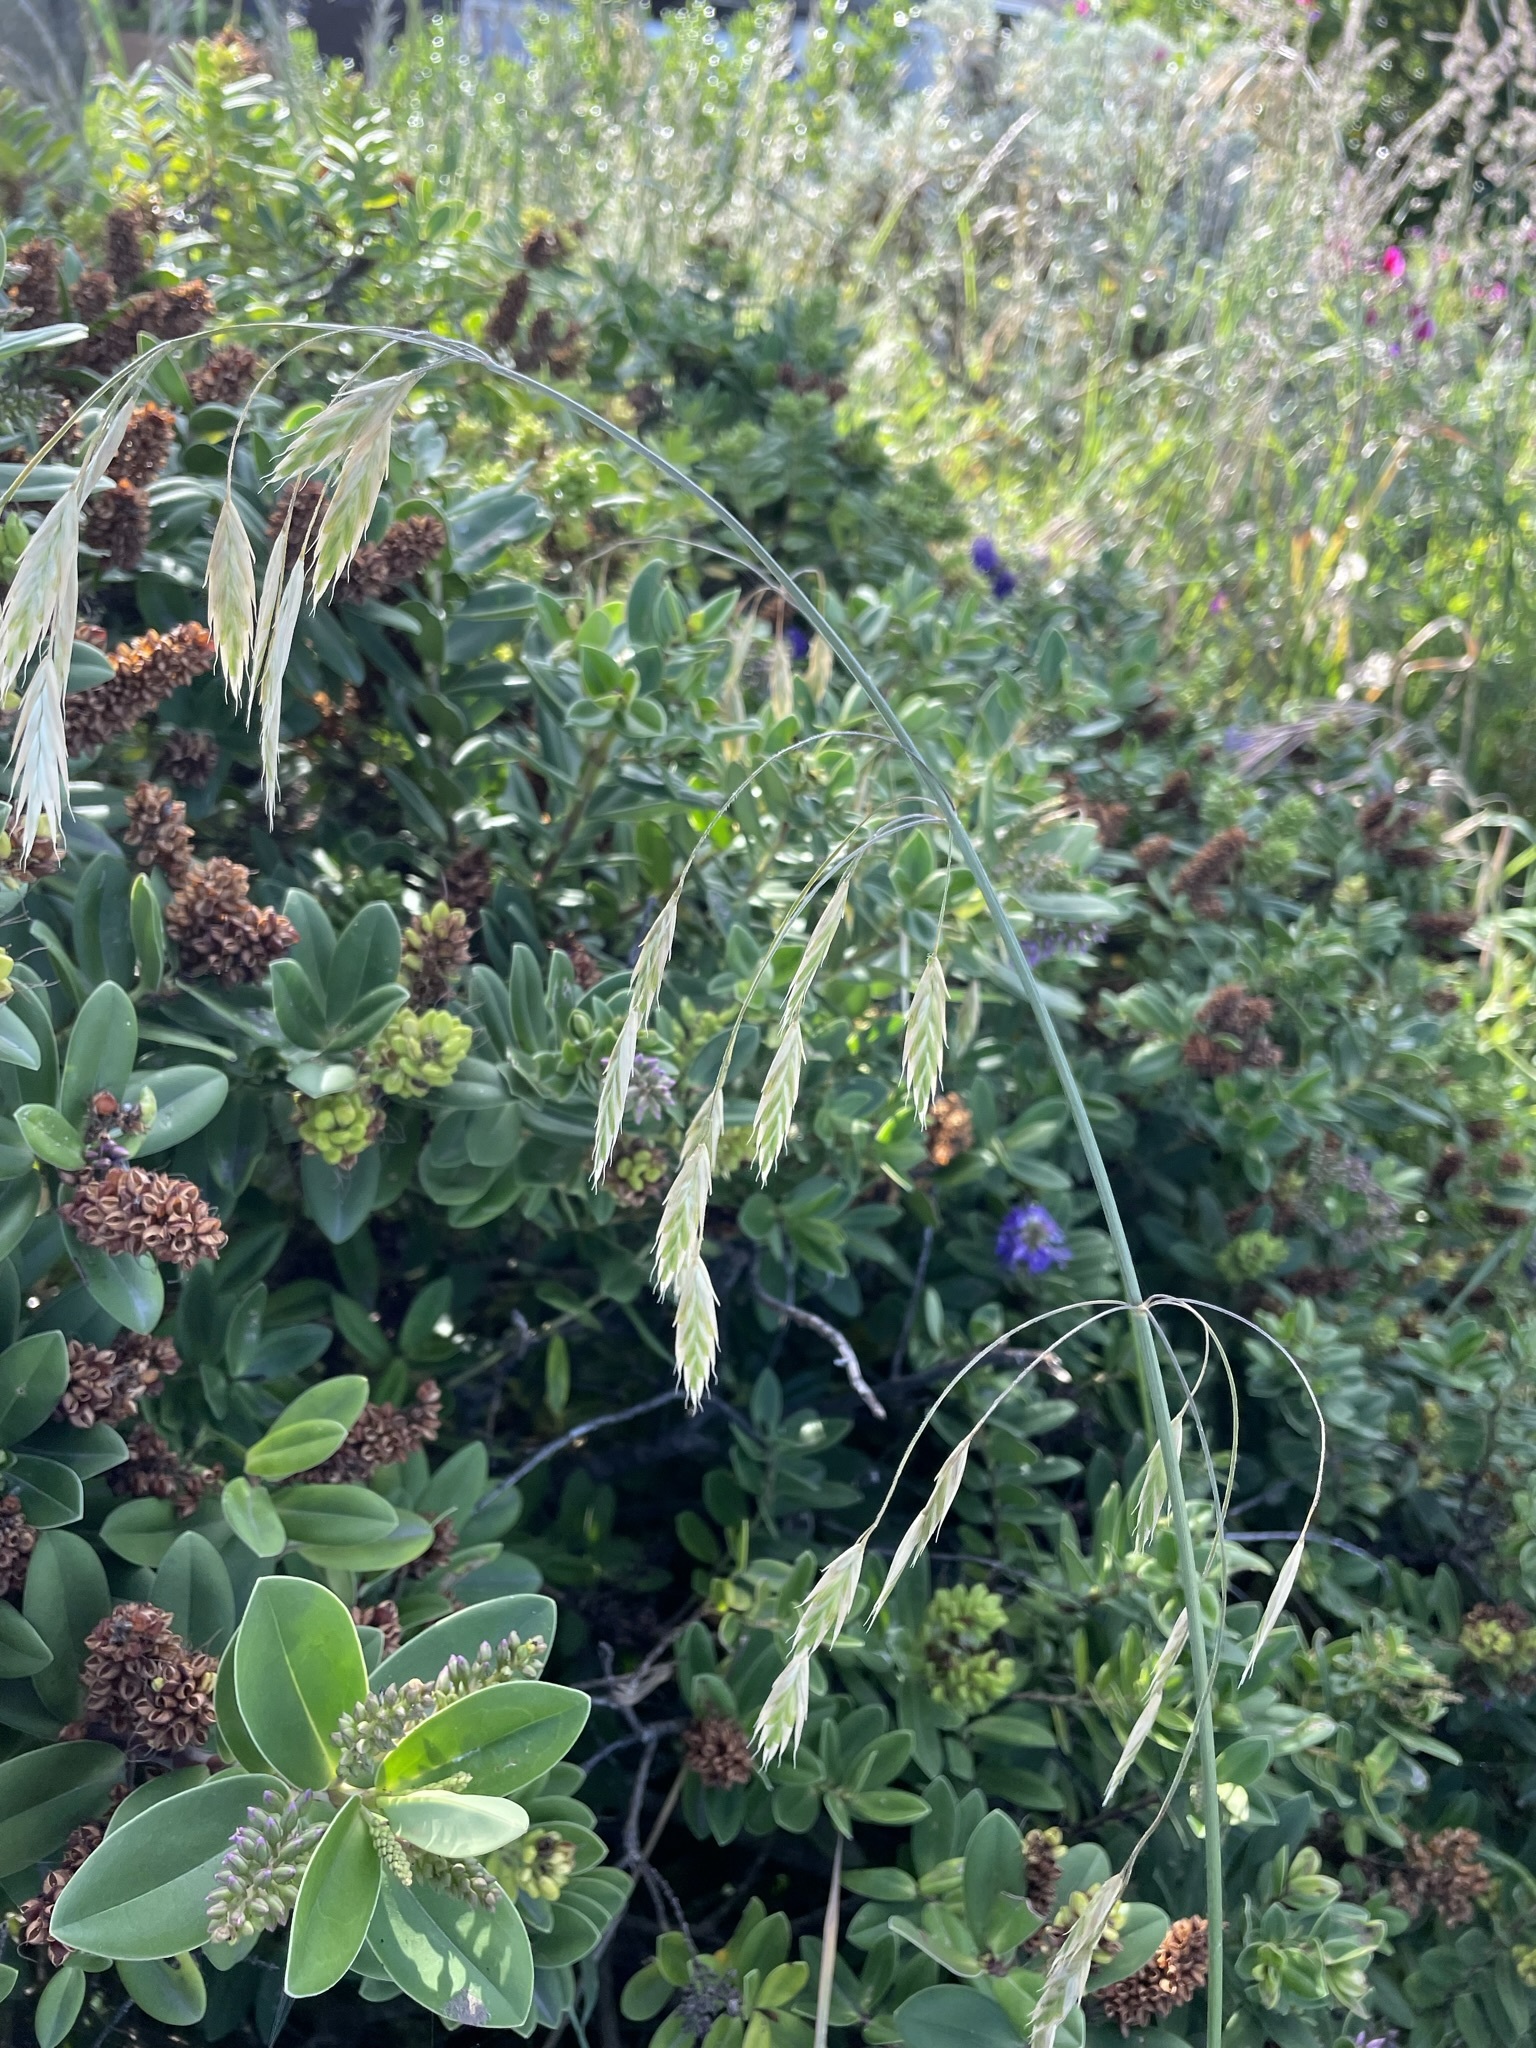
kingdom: Plantae
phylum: Tracheophyta
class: Liliopsida
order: Poales
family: Poaceae
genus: Bromus
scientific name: Bromus catharticus
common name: Rescuegrass
